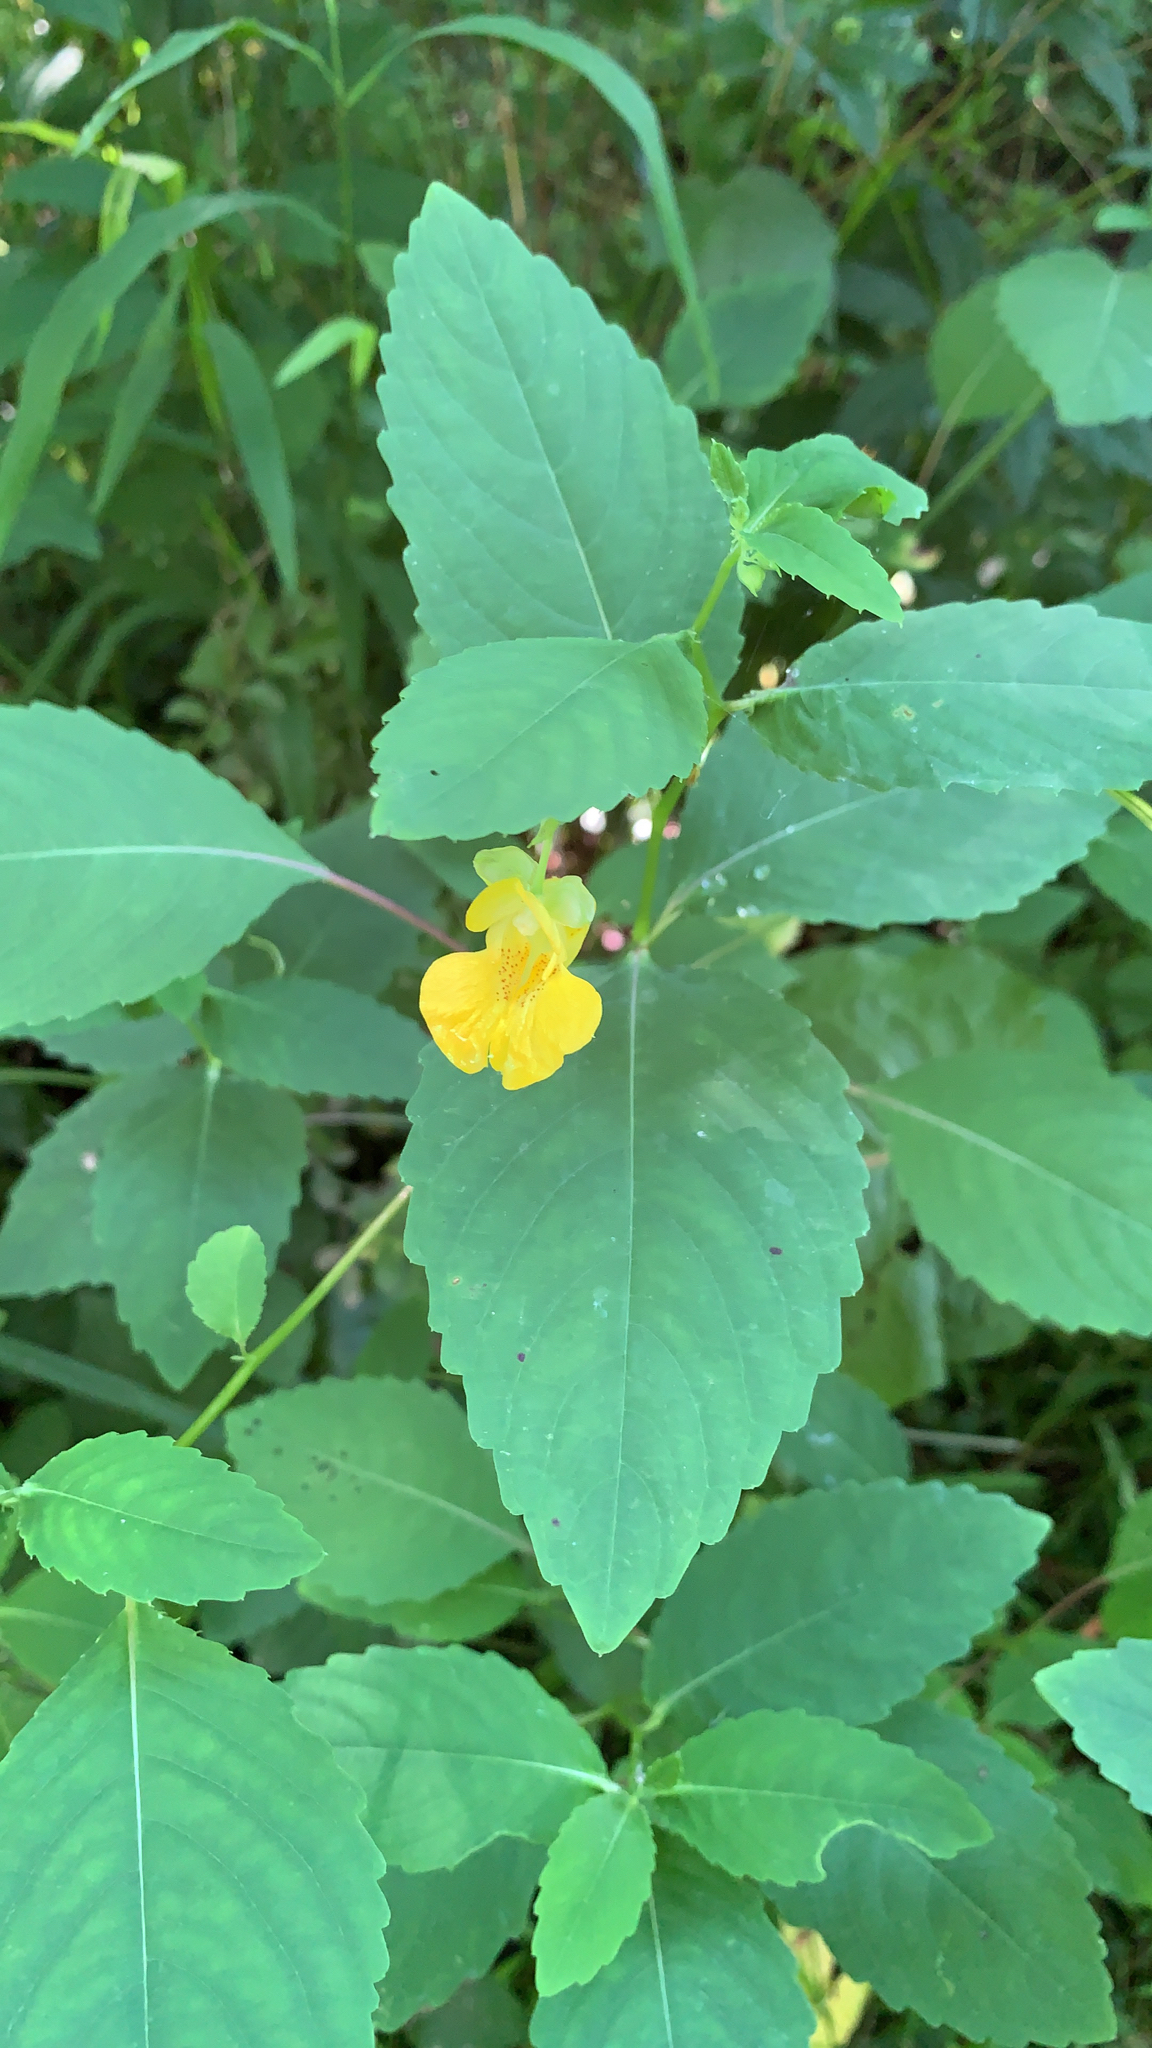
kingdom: Plantae
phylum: Tracheophyta
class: Magnoliopsida
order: Ericales
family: Balsaminaceae
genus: Impatiens
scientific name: Impatiens pallida
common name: Pale snapweed
